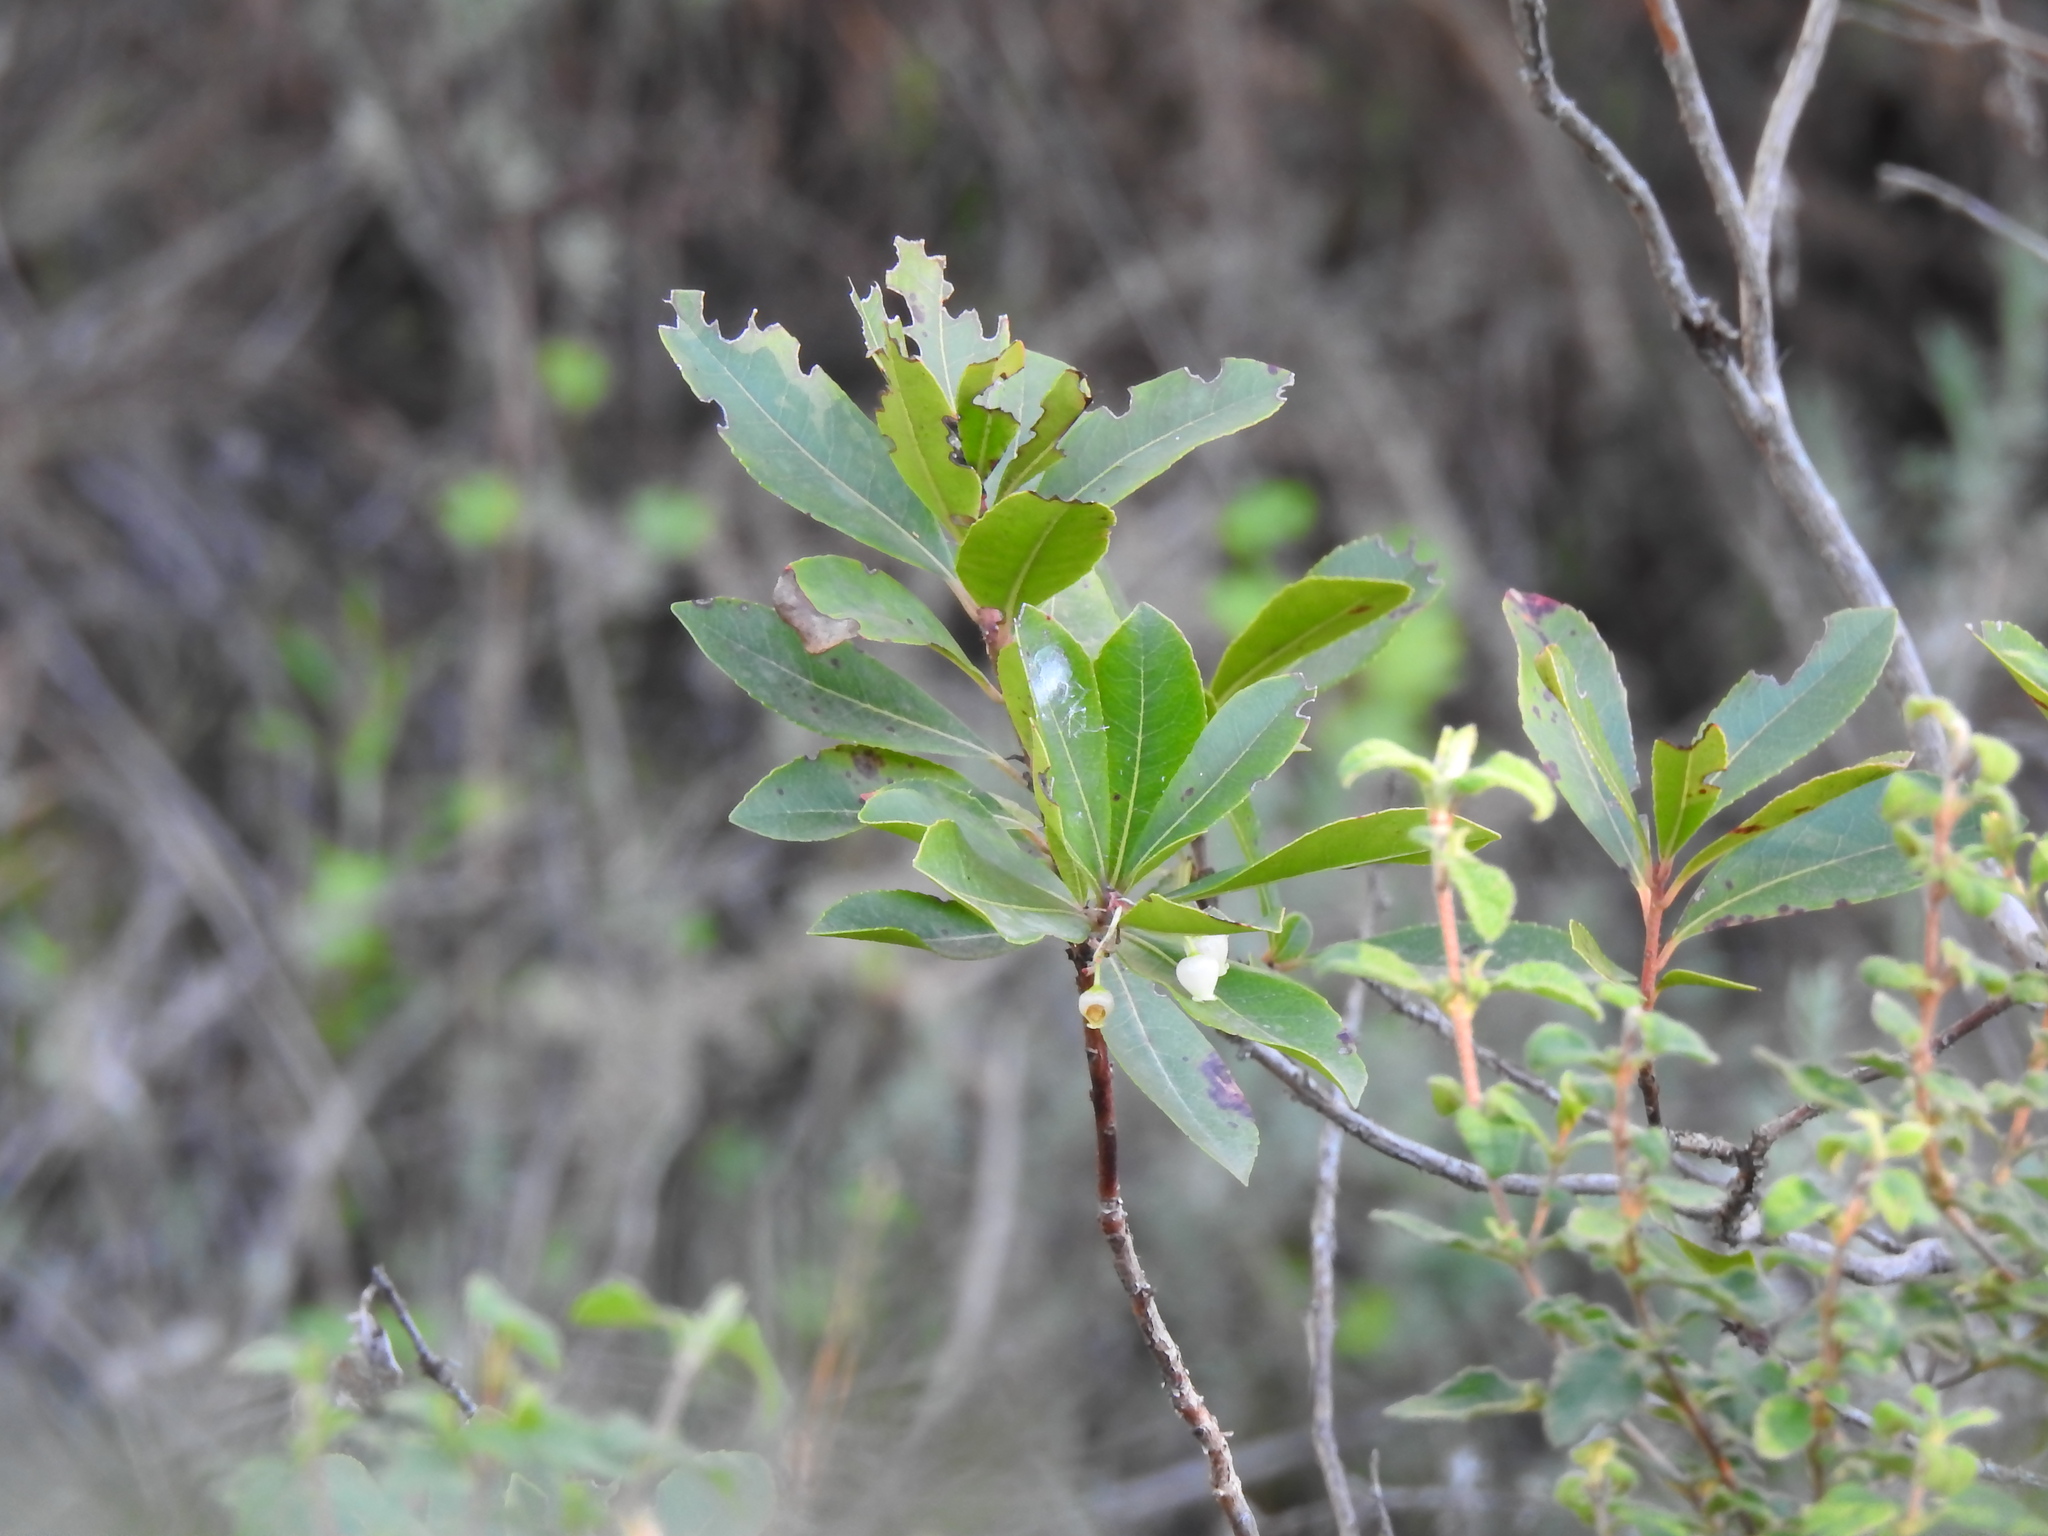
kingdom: Plantae
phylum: Tracheophyta
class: Magnoliopsida
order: Ericales
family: Ericaceae
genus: Arbutus
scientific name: Arbutus unedo
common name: Strawberry-tree
